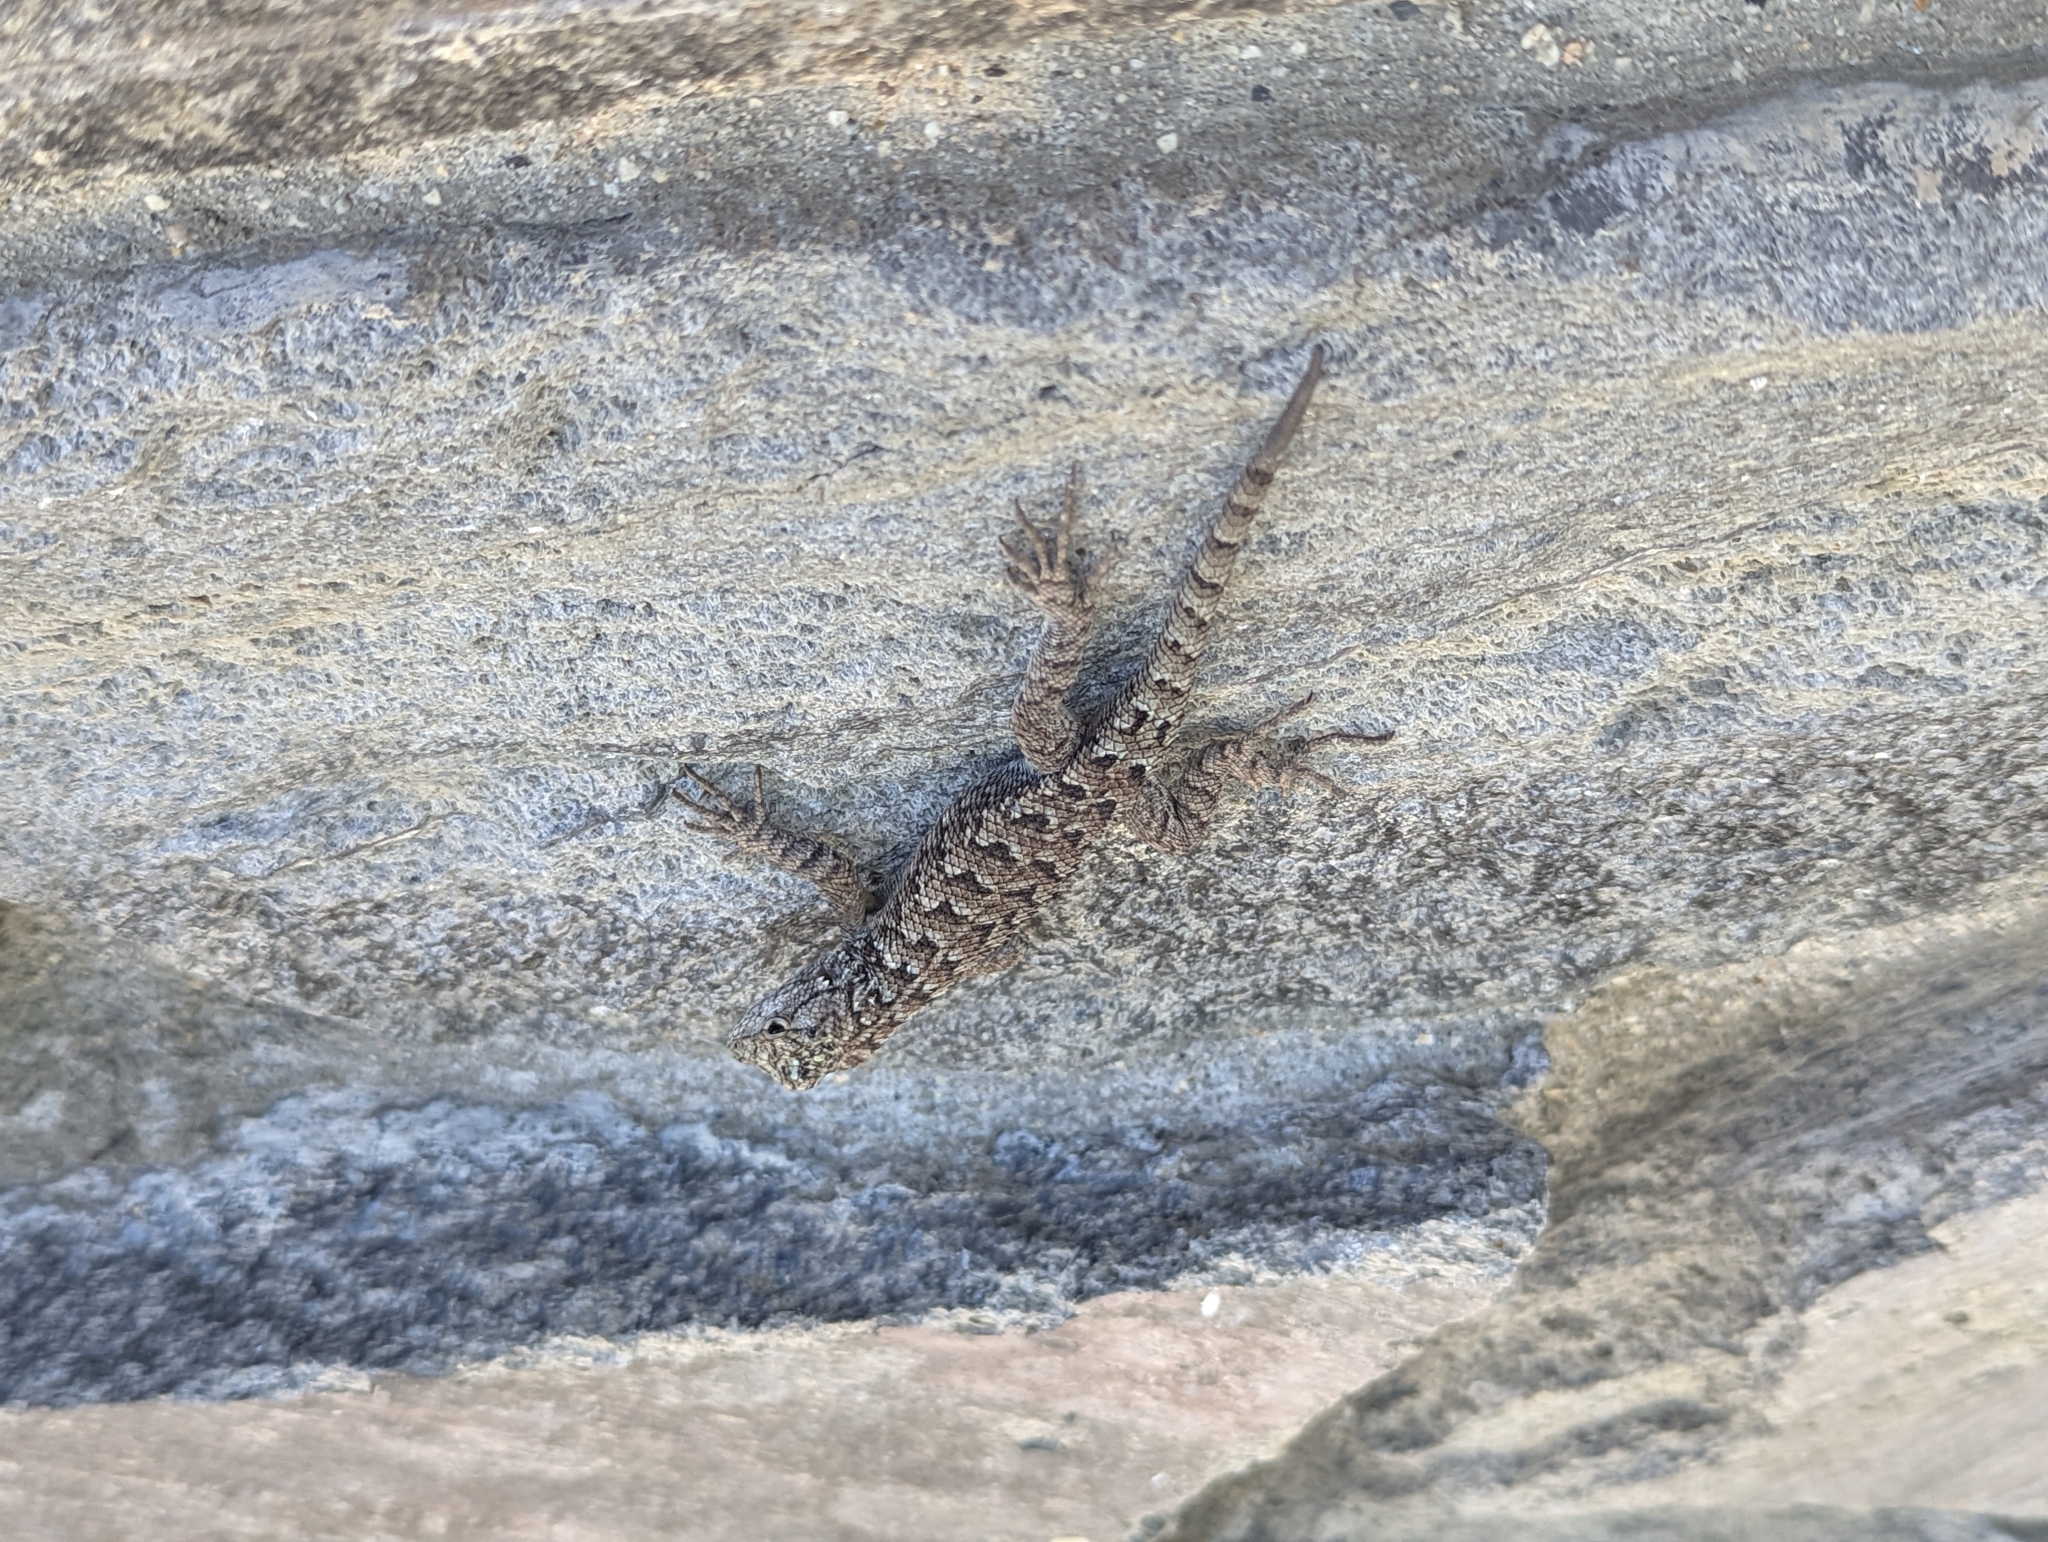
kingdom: Animalia
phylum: Chordata
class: Squamata
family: Phrynosomatidae
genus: Sceloporus
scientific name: Sceloporus occidentalis
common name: Western fence lizard
